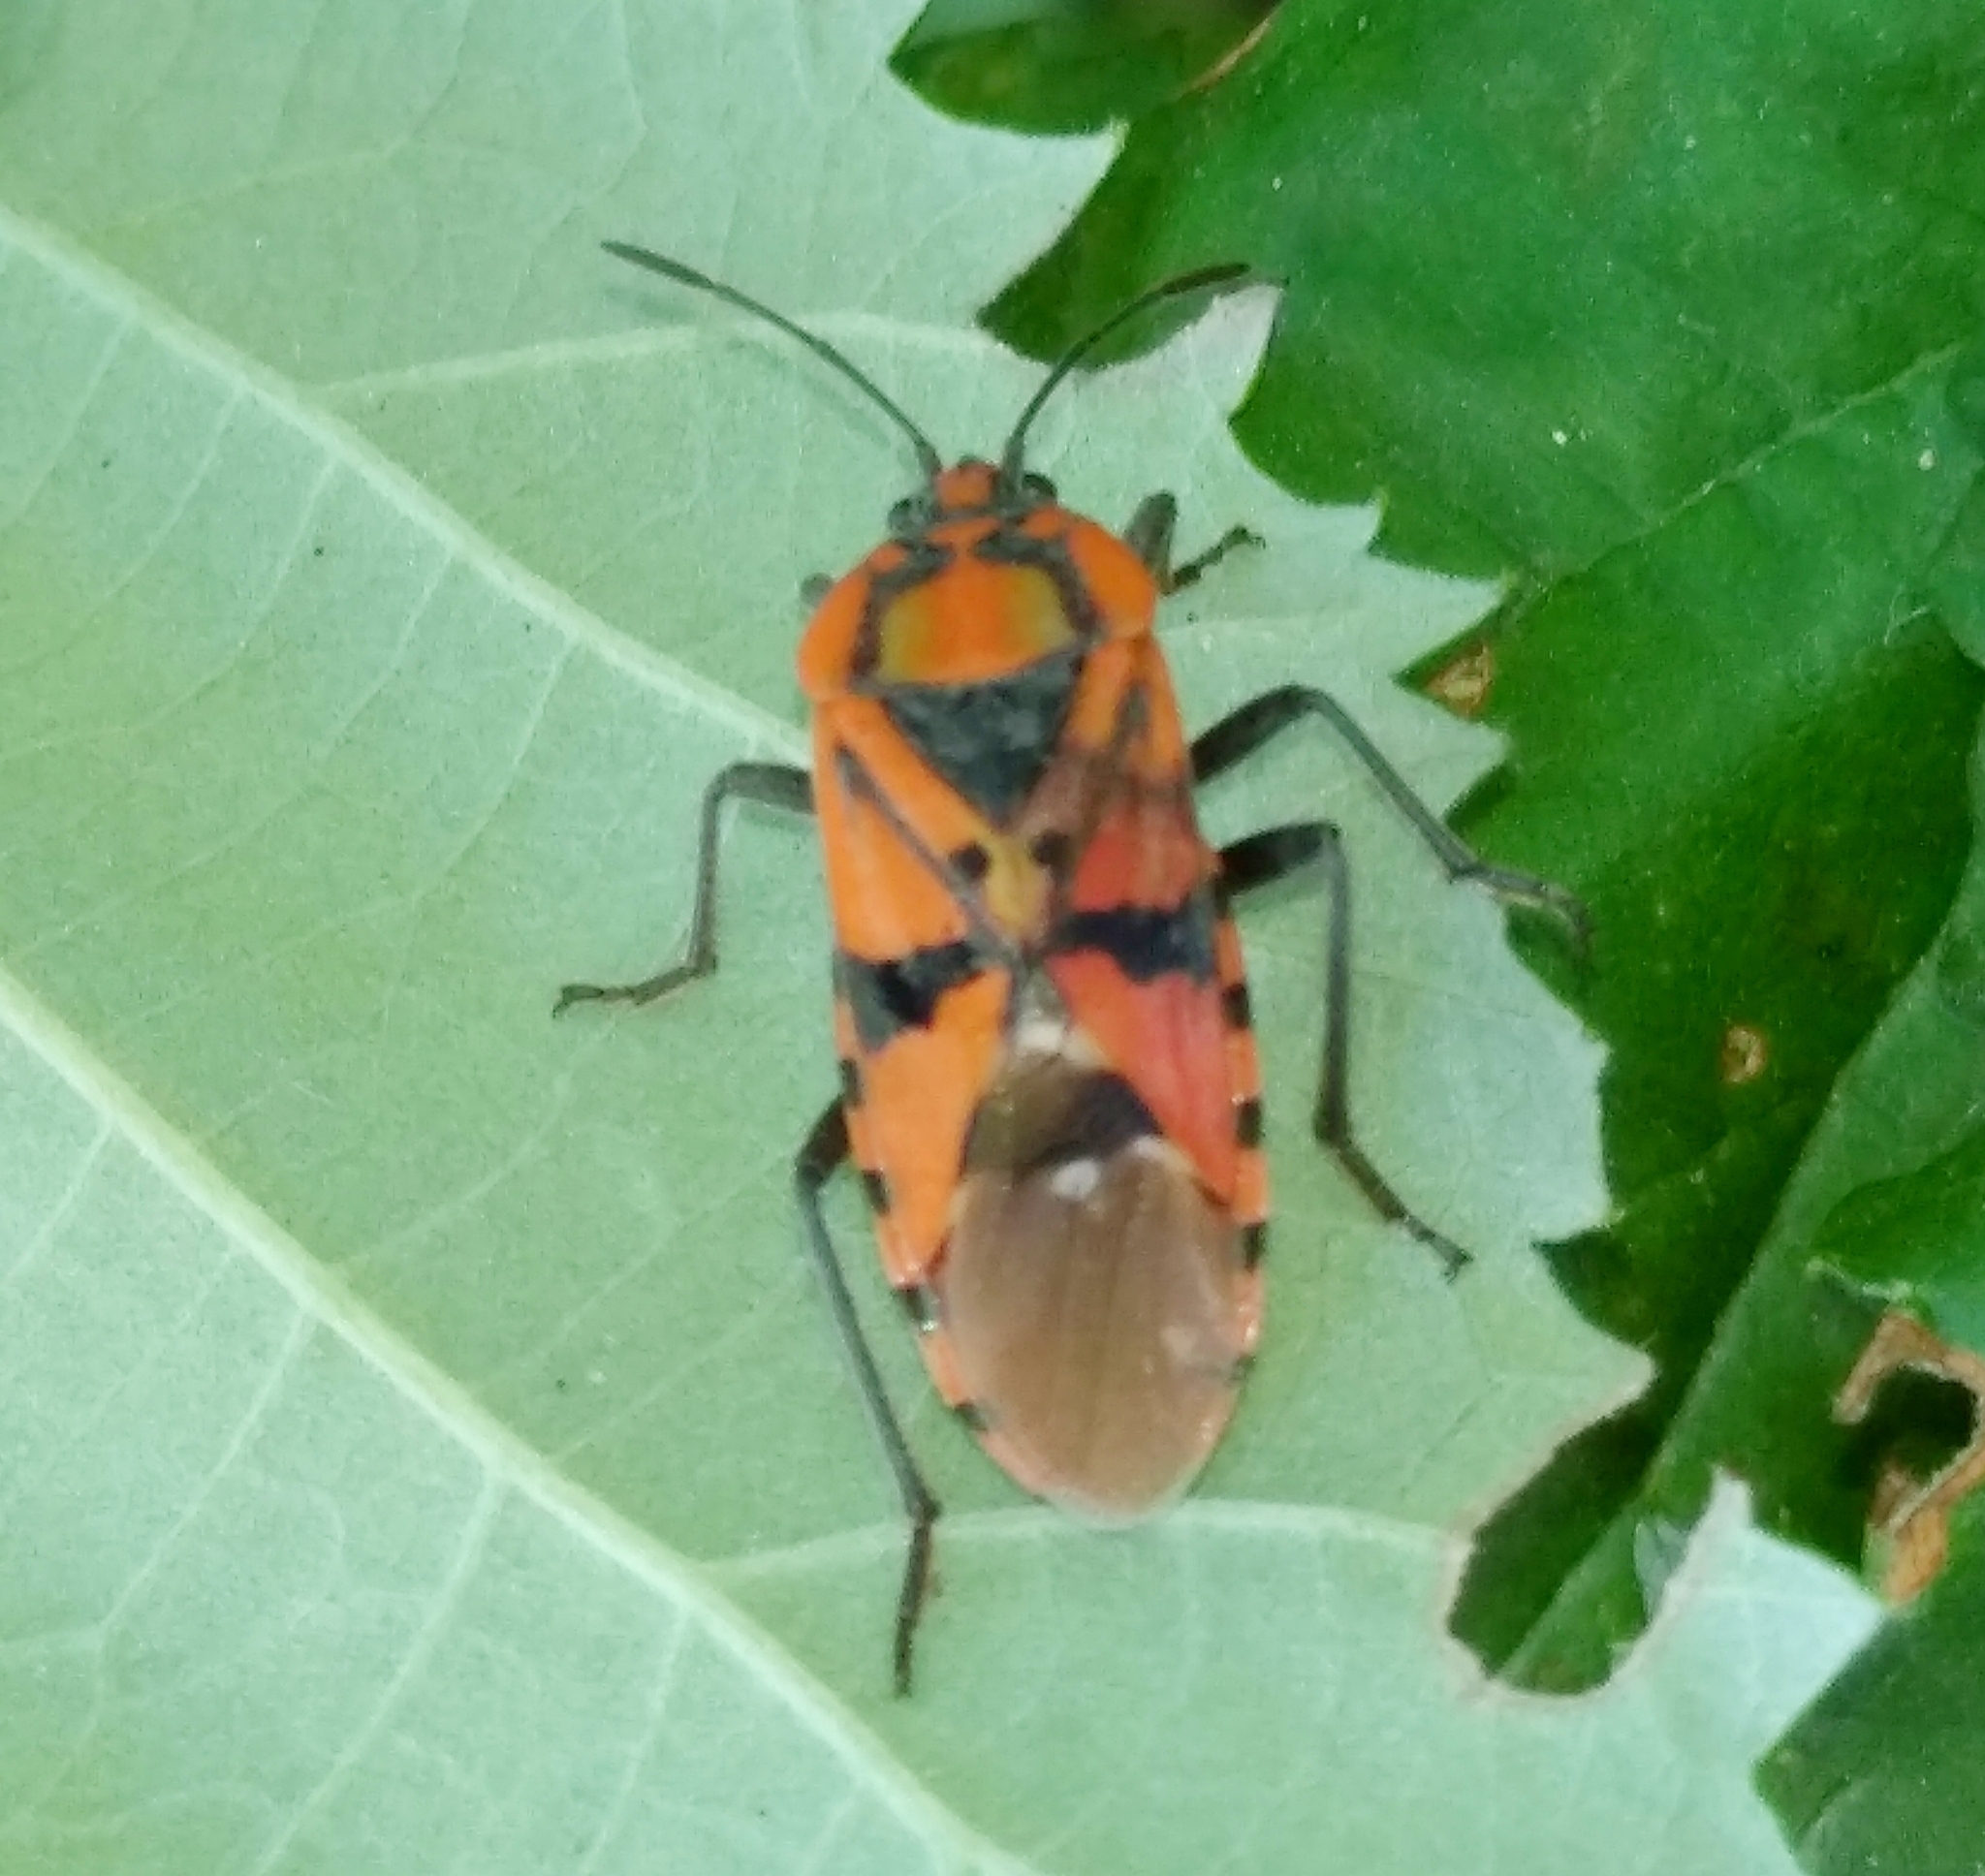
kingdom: Animalia
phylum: Arthropoda
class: Insecta
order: Hemiptera
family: Lygaeidae
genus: Spilostethus
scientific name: Spilostethus pandurus
